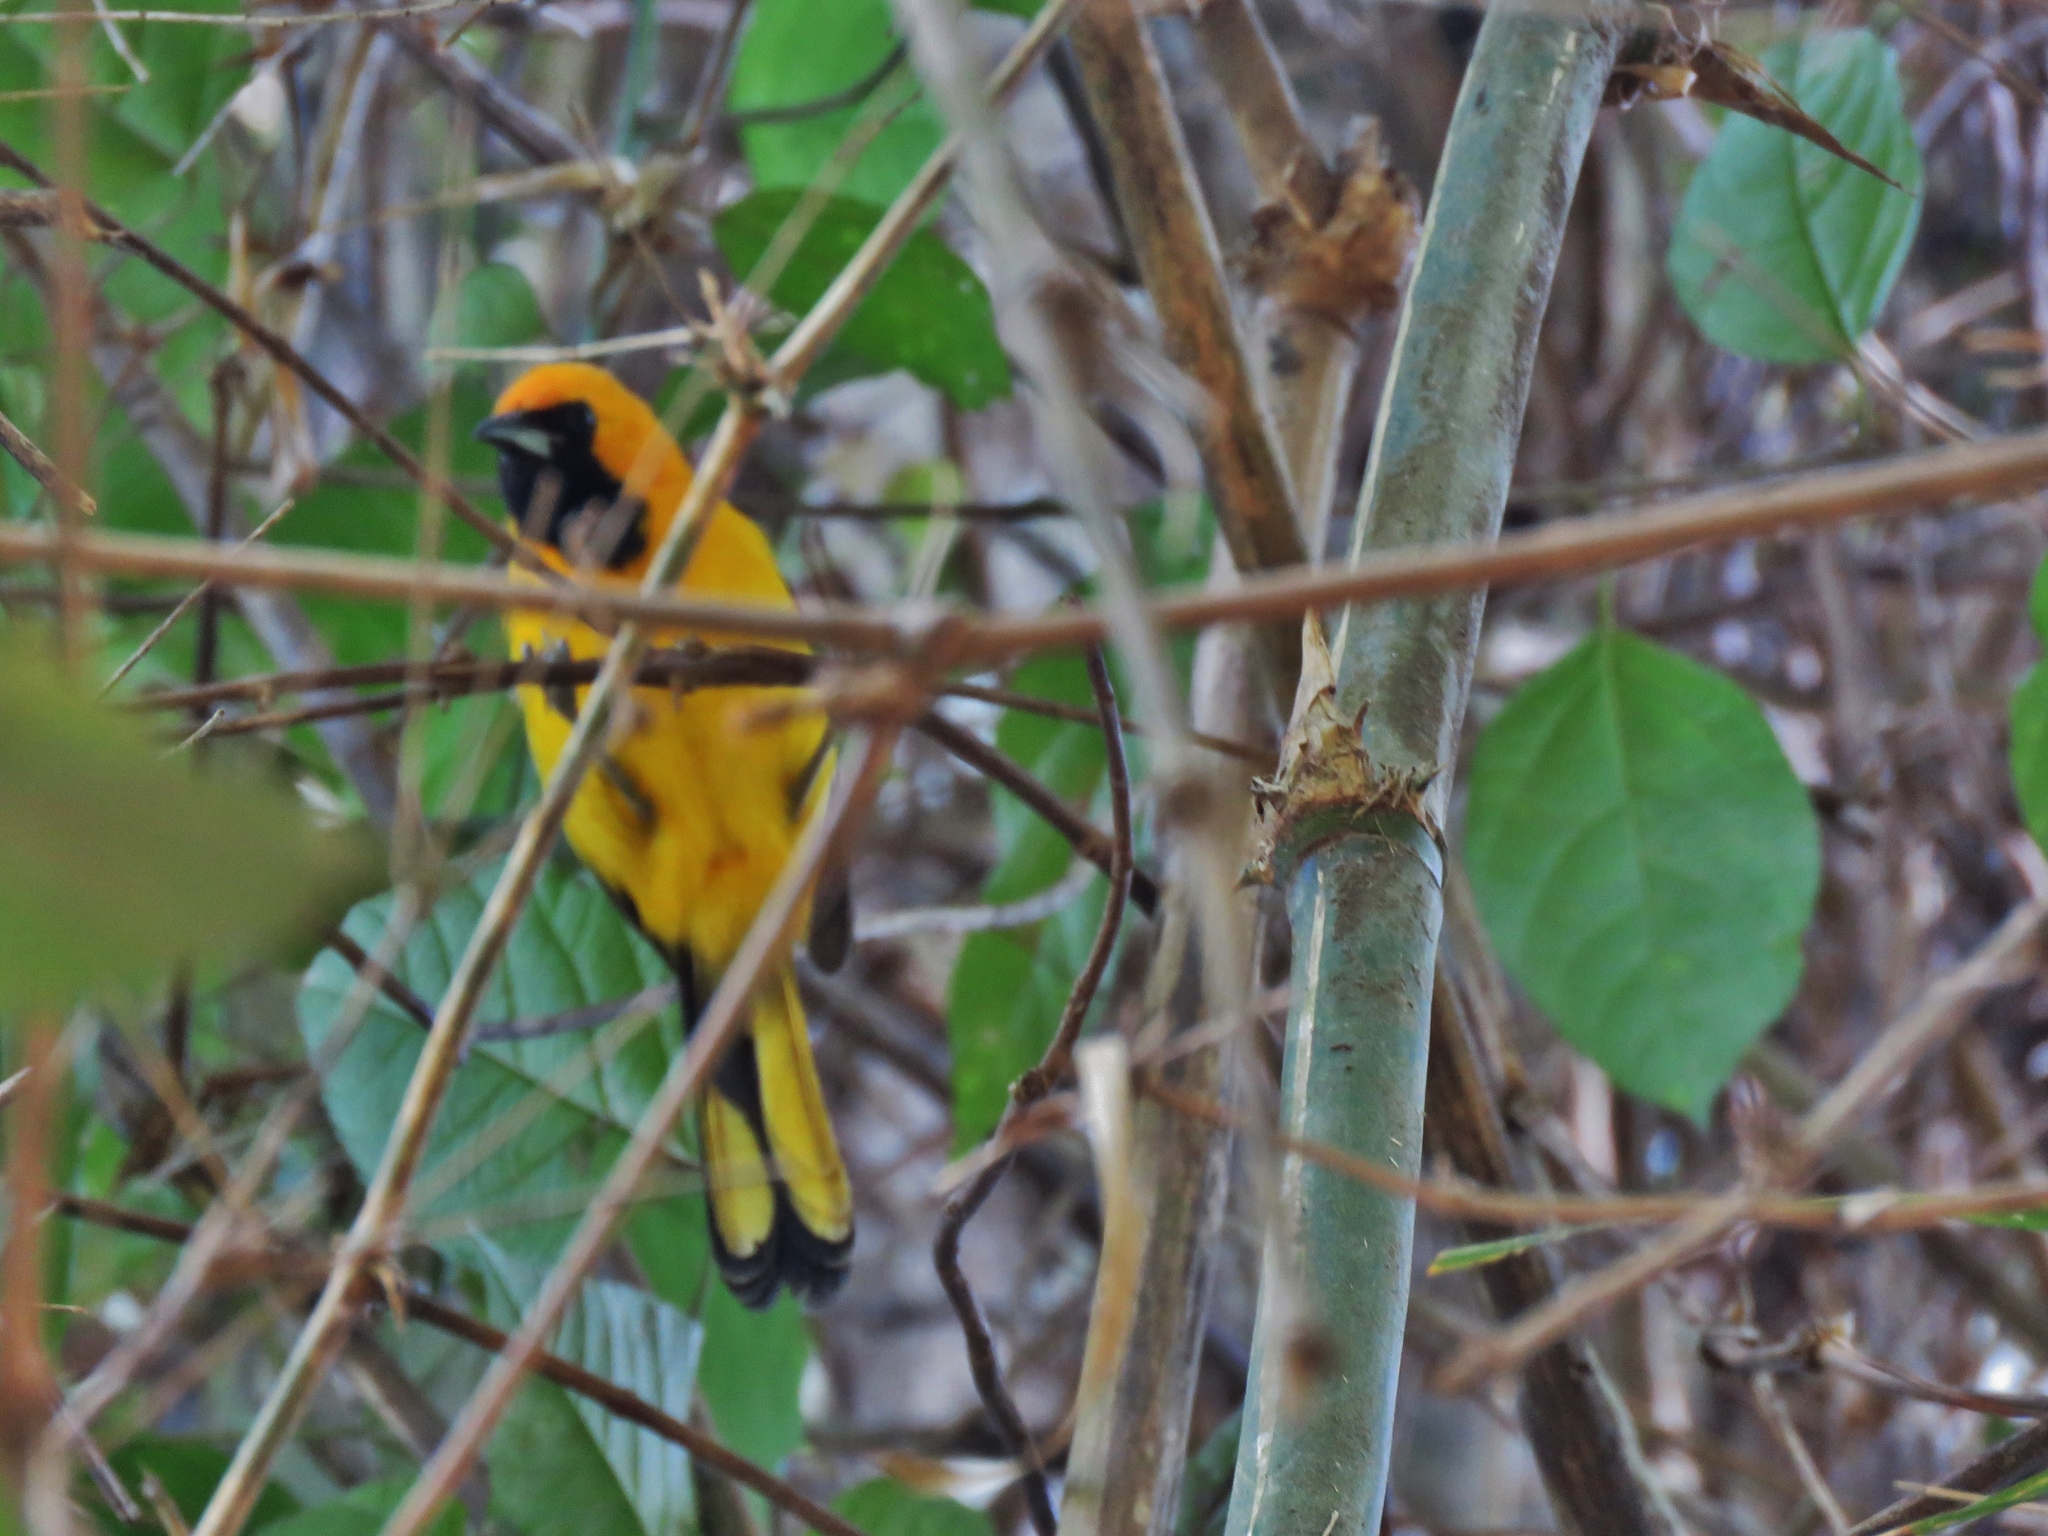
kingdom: Animalia
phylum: Chordata
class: Aves
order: Passeriformes
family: Icteridae
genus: Icterus
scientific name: Icterus mesomelas
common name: Yellow-tailed oriole
